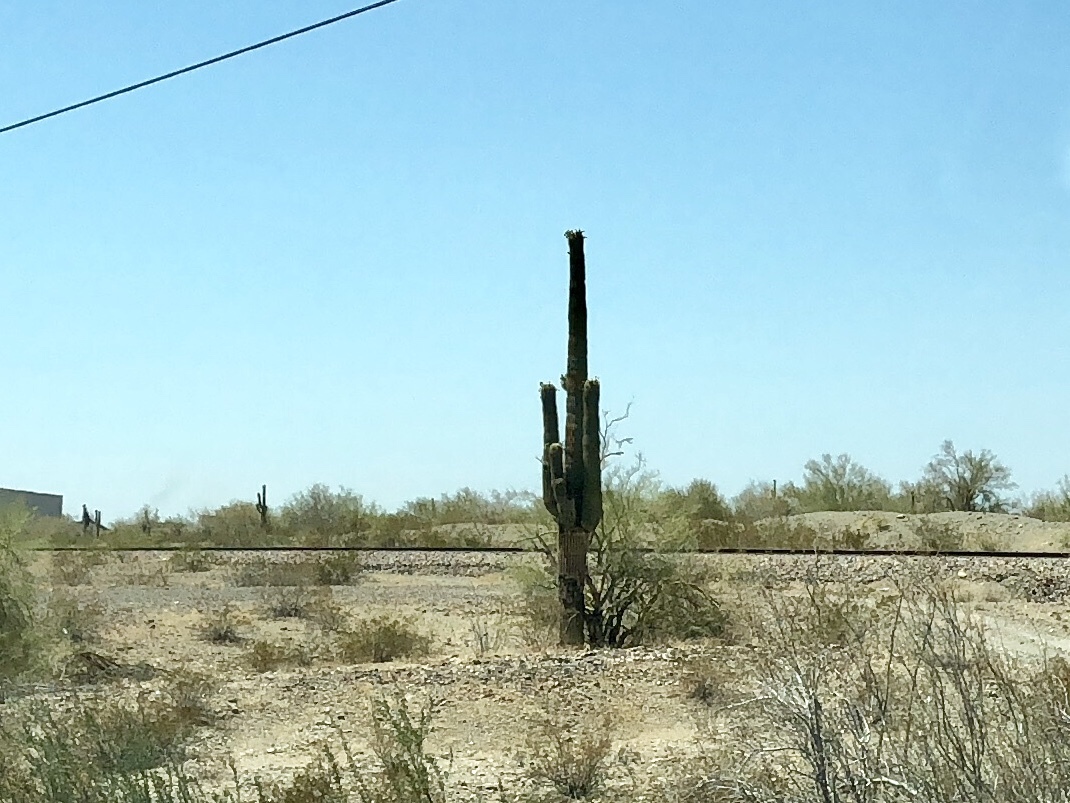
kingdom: Plantae
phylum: Tracheophyta
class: Magnoliopsida
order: Caryophyllales
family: Cactaceae
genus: Carnegiea
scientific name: Carnegiea gigantea
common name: Saguaro
